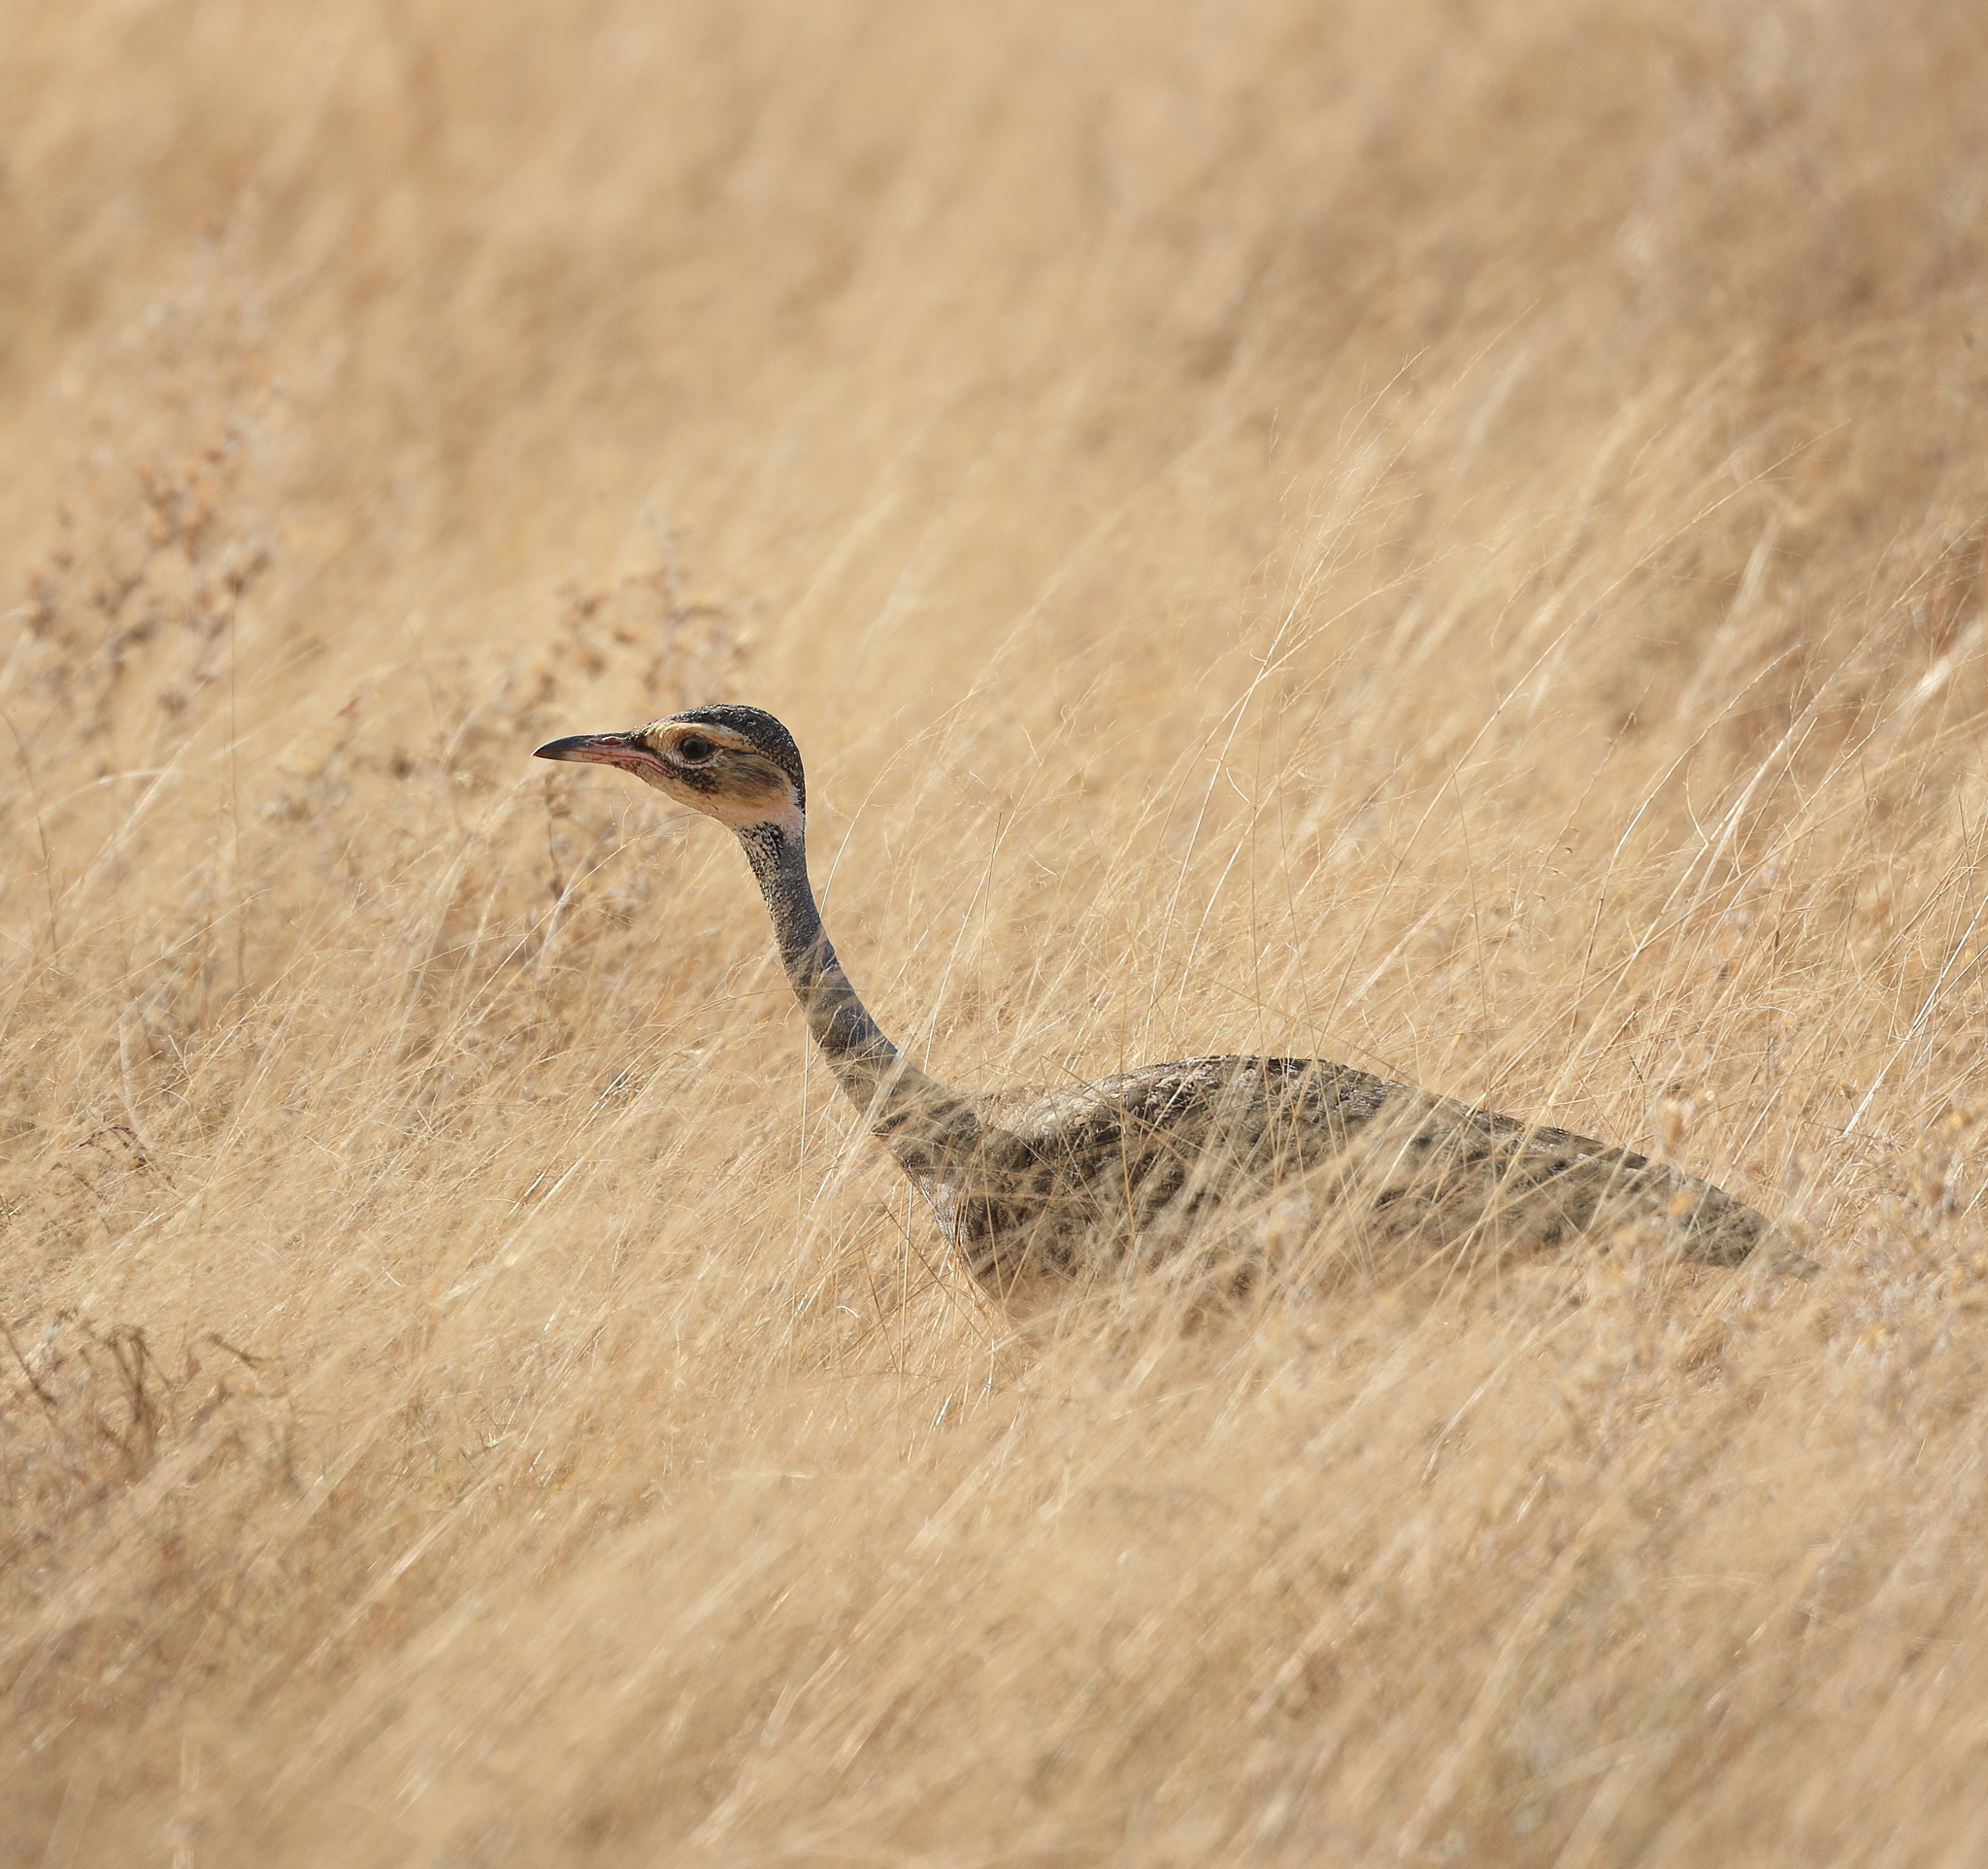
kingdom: Animalia
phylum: Chordata
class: Aves
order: Otidiformes
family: Otididae
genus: Eupodotis
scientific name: Eupodotis senegalensis
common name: White-bellied bustard
